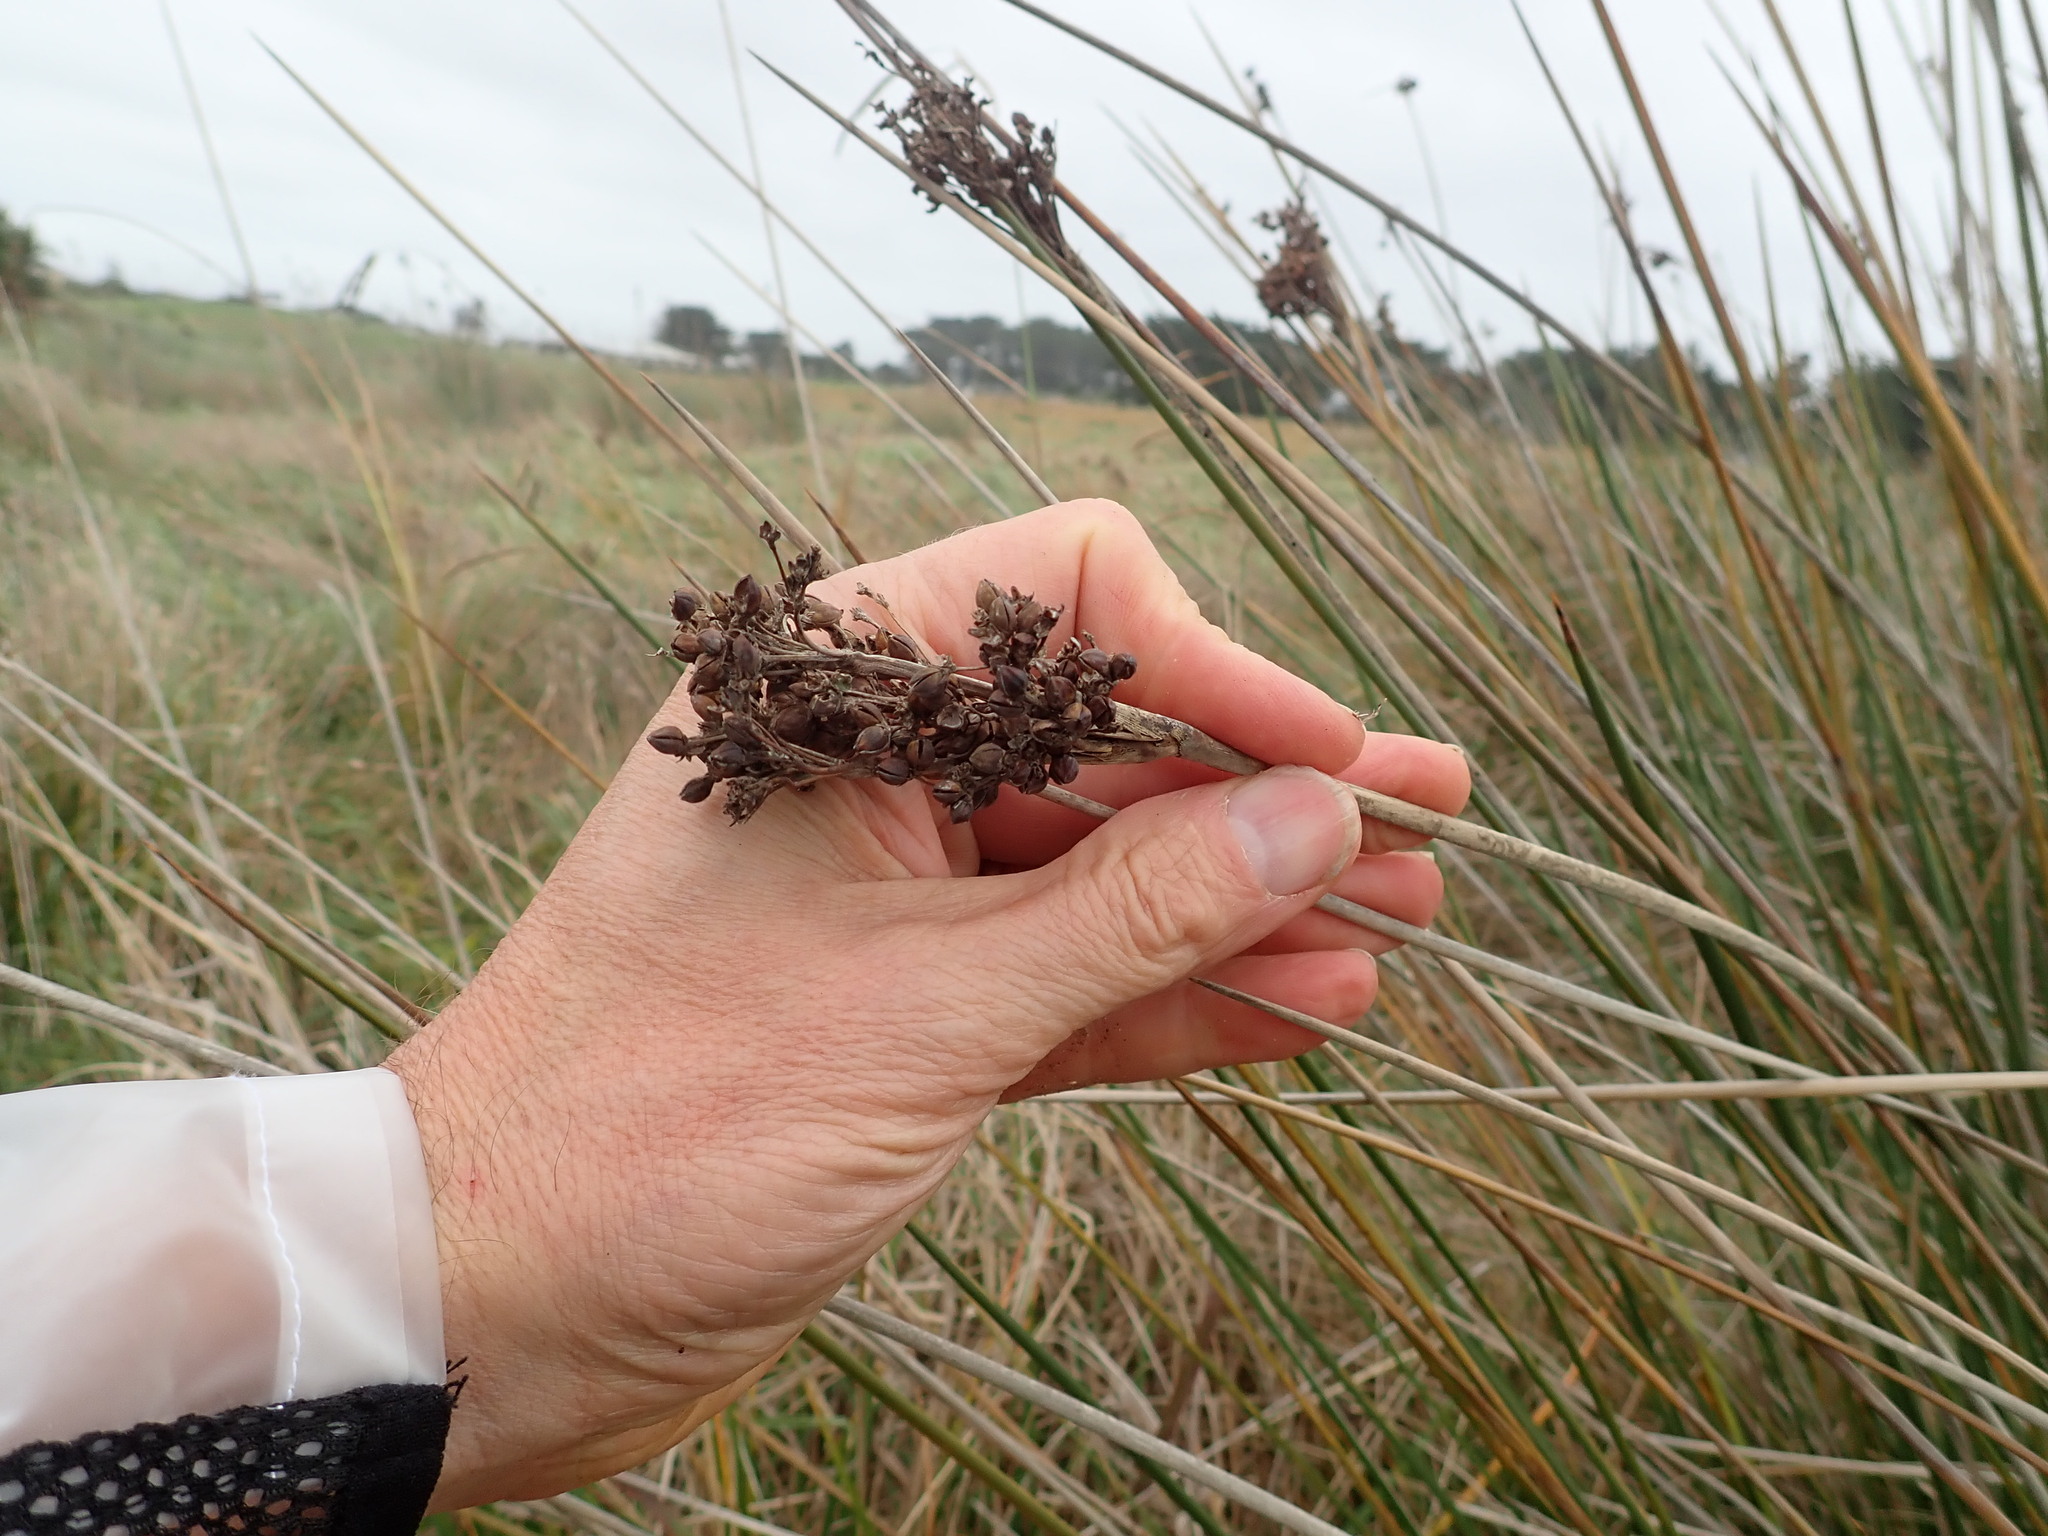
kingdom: Plantae
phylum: Tracheophyta
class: Liliopsida
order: Poales
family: Juncaceae
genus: Juncus
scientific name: Juncus acutus
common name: Sharp rush
